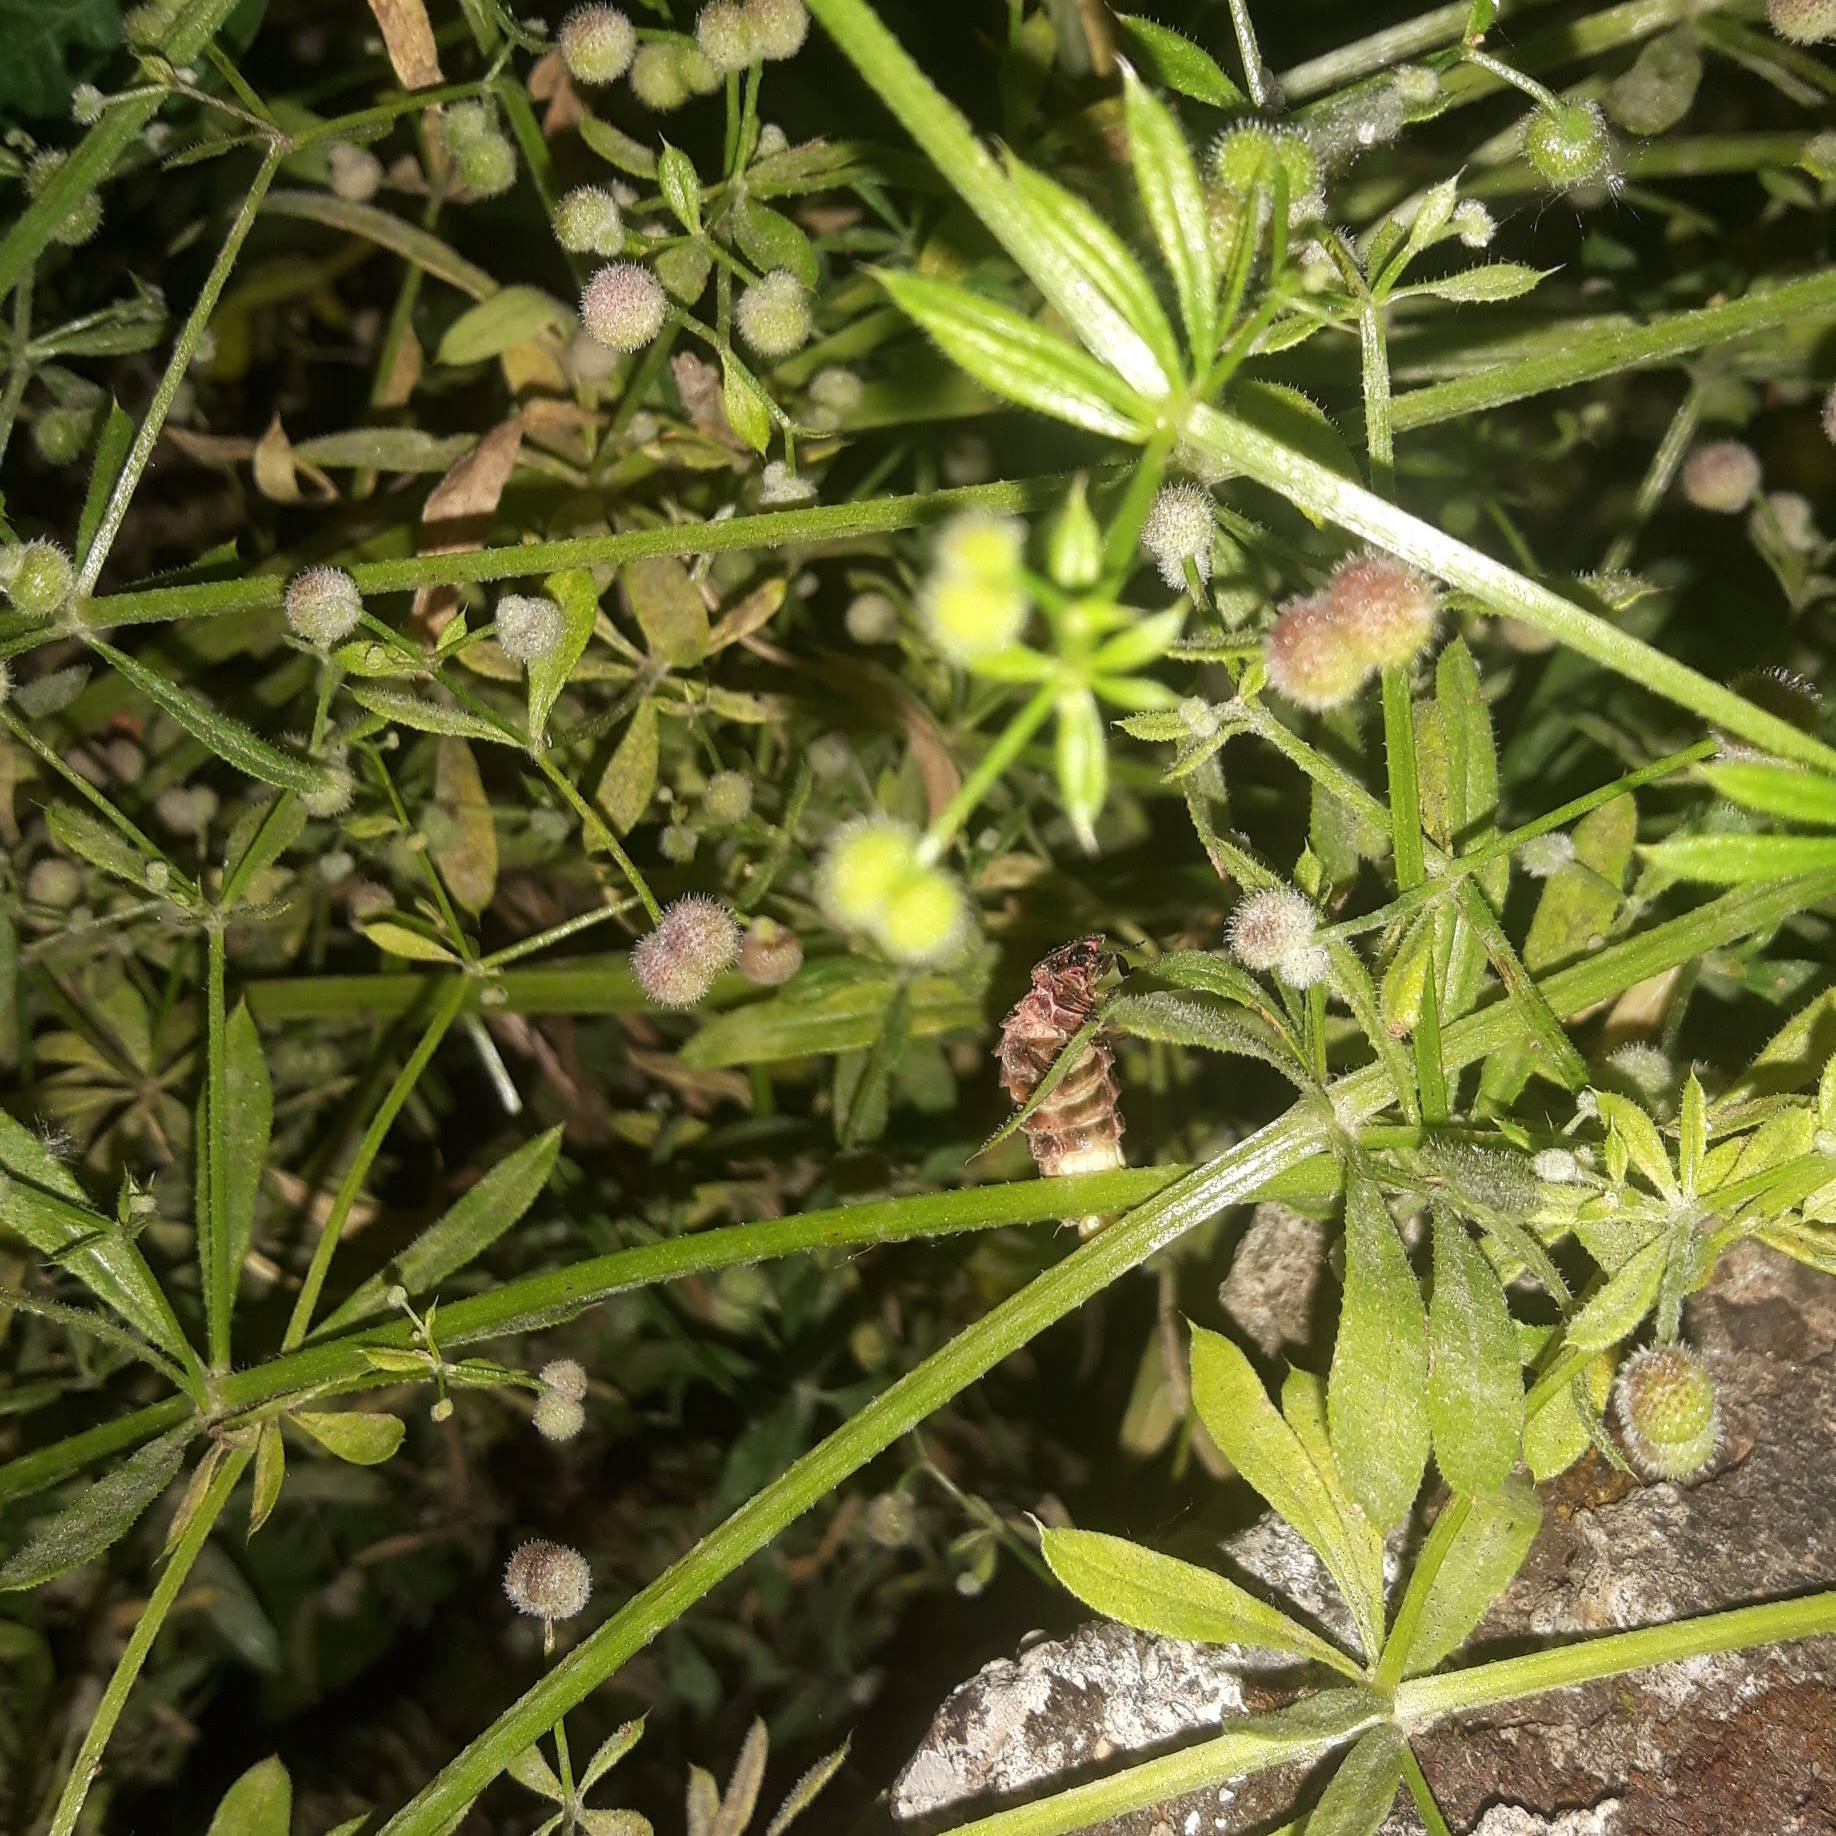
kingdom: Animalia
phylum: Arthropoda
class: Insecta
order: Coleoptera
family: Lampyridae
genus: Lampyris
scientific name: Lampyris noctiluca
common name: Glow-worm
